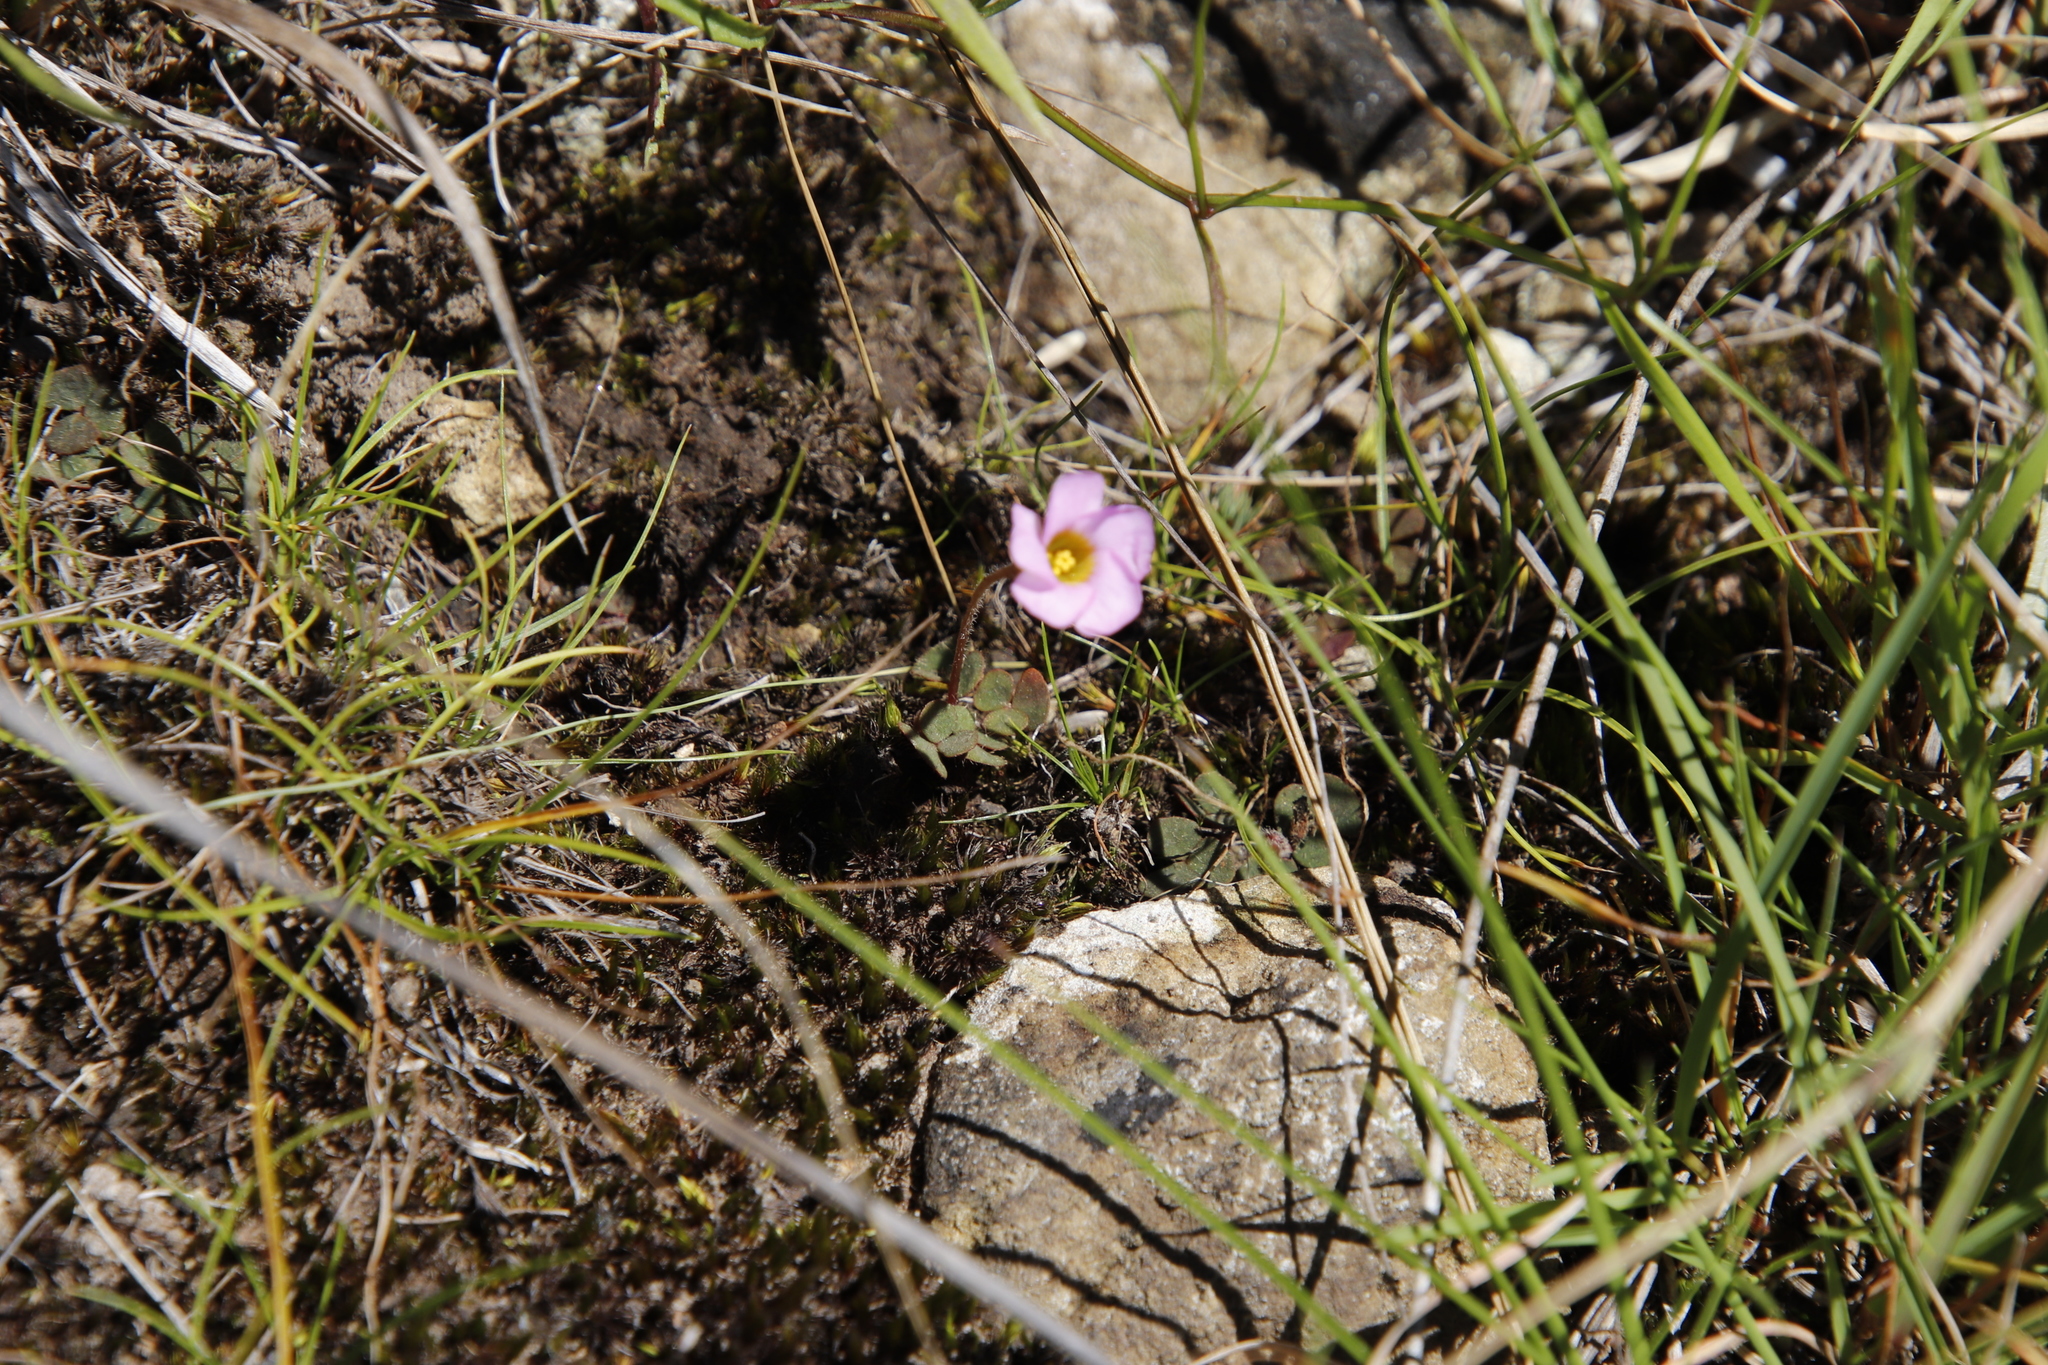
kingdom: Plantae
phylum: Tracheophyta
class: Magnoliopsida
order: Oxalidales
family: Oxalidaceae
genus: Oxalis
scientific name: Oxalis obliquifolia
